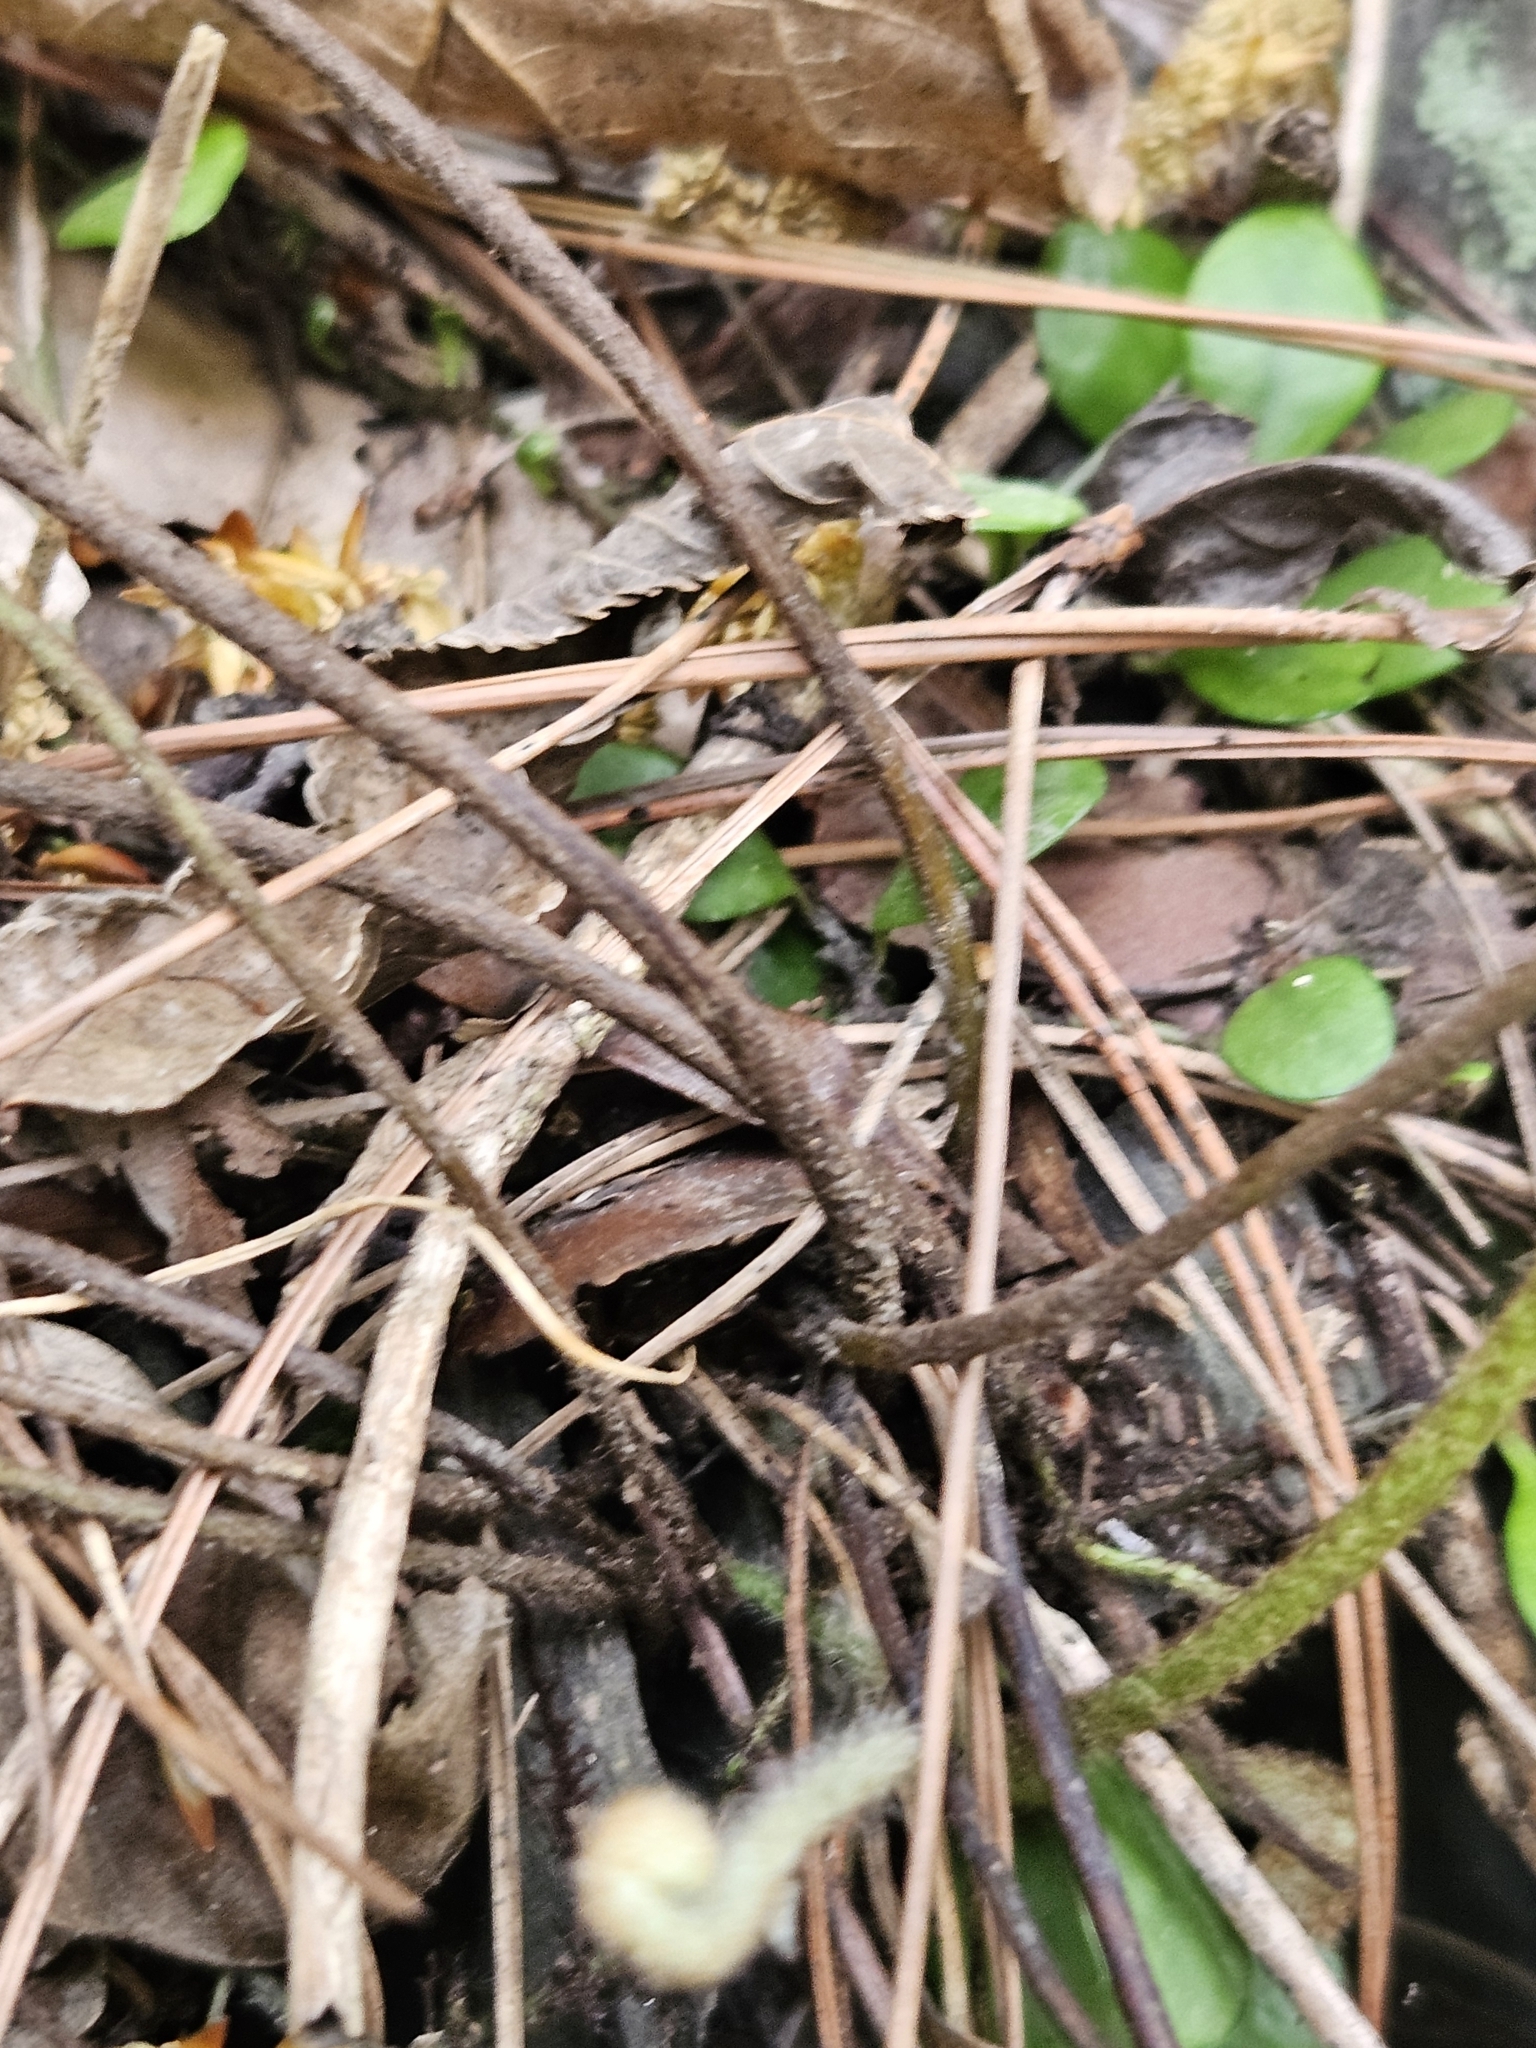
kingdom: Plantae
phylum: Tracheophyta
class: Polypodiopsida
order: Polypodiales
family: Polypodiaceae
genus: Pyrrosia
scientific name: Pyrrosia polydactyla
